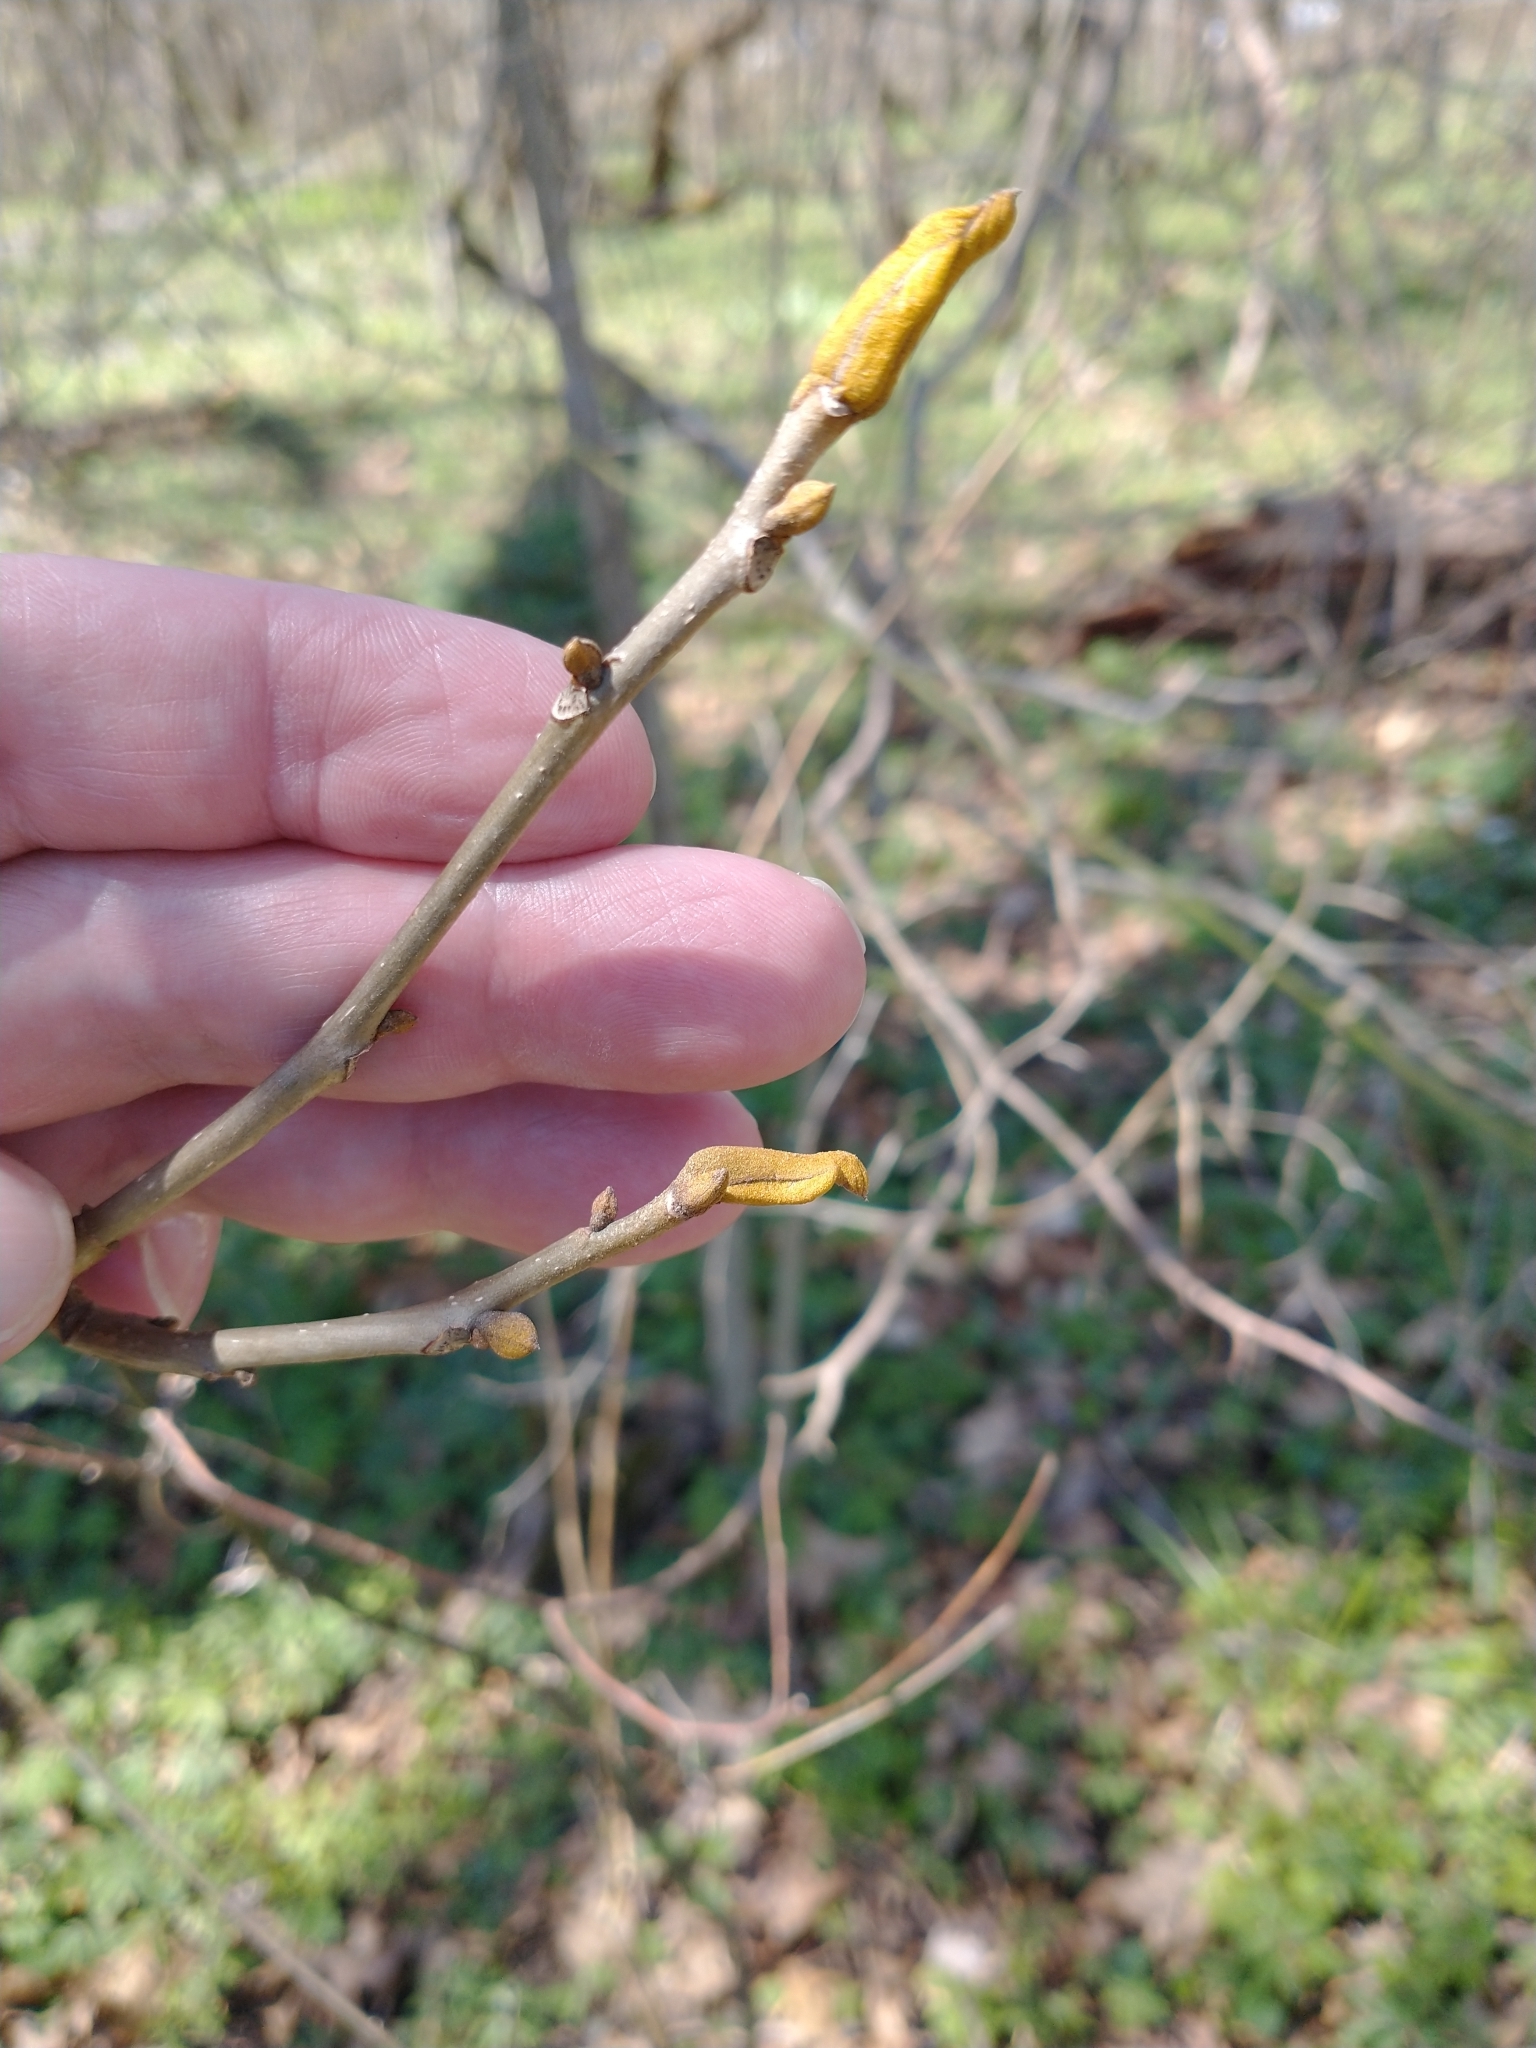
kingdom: Plantae
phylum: Tracheophyta
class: Magnoliopsida
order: Fagales
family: Juglandaceae
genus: Carya
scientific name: Carya cordiformis
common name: Bitternut hickory
